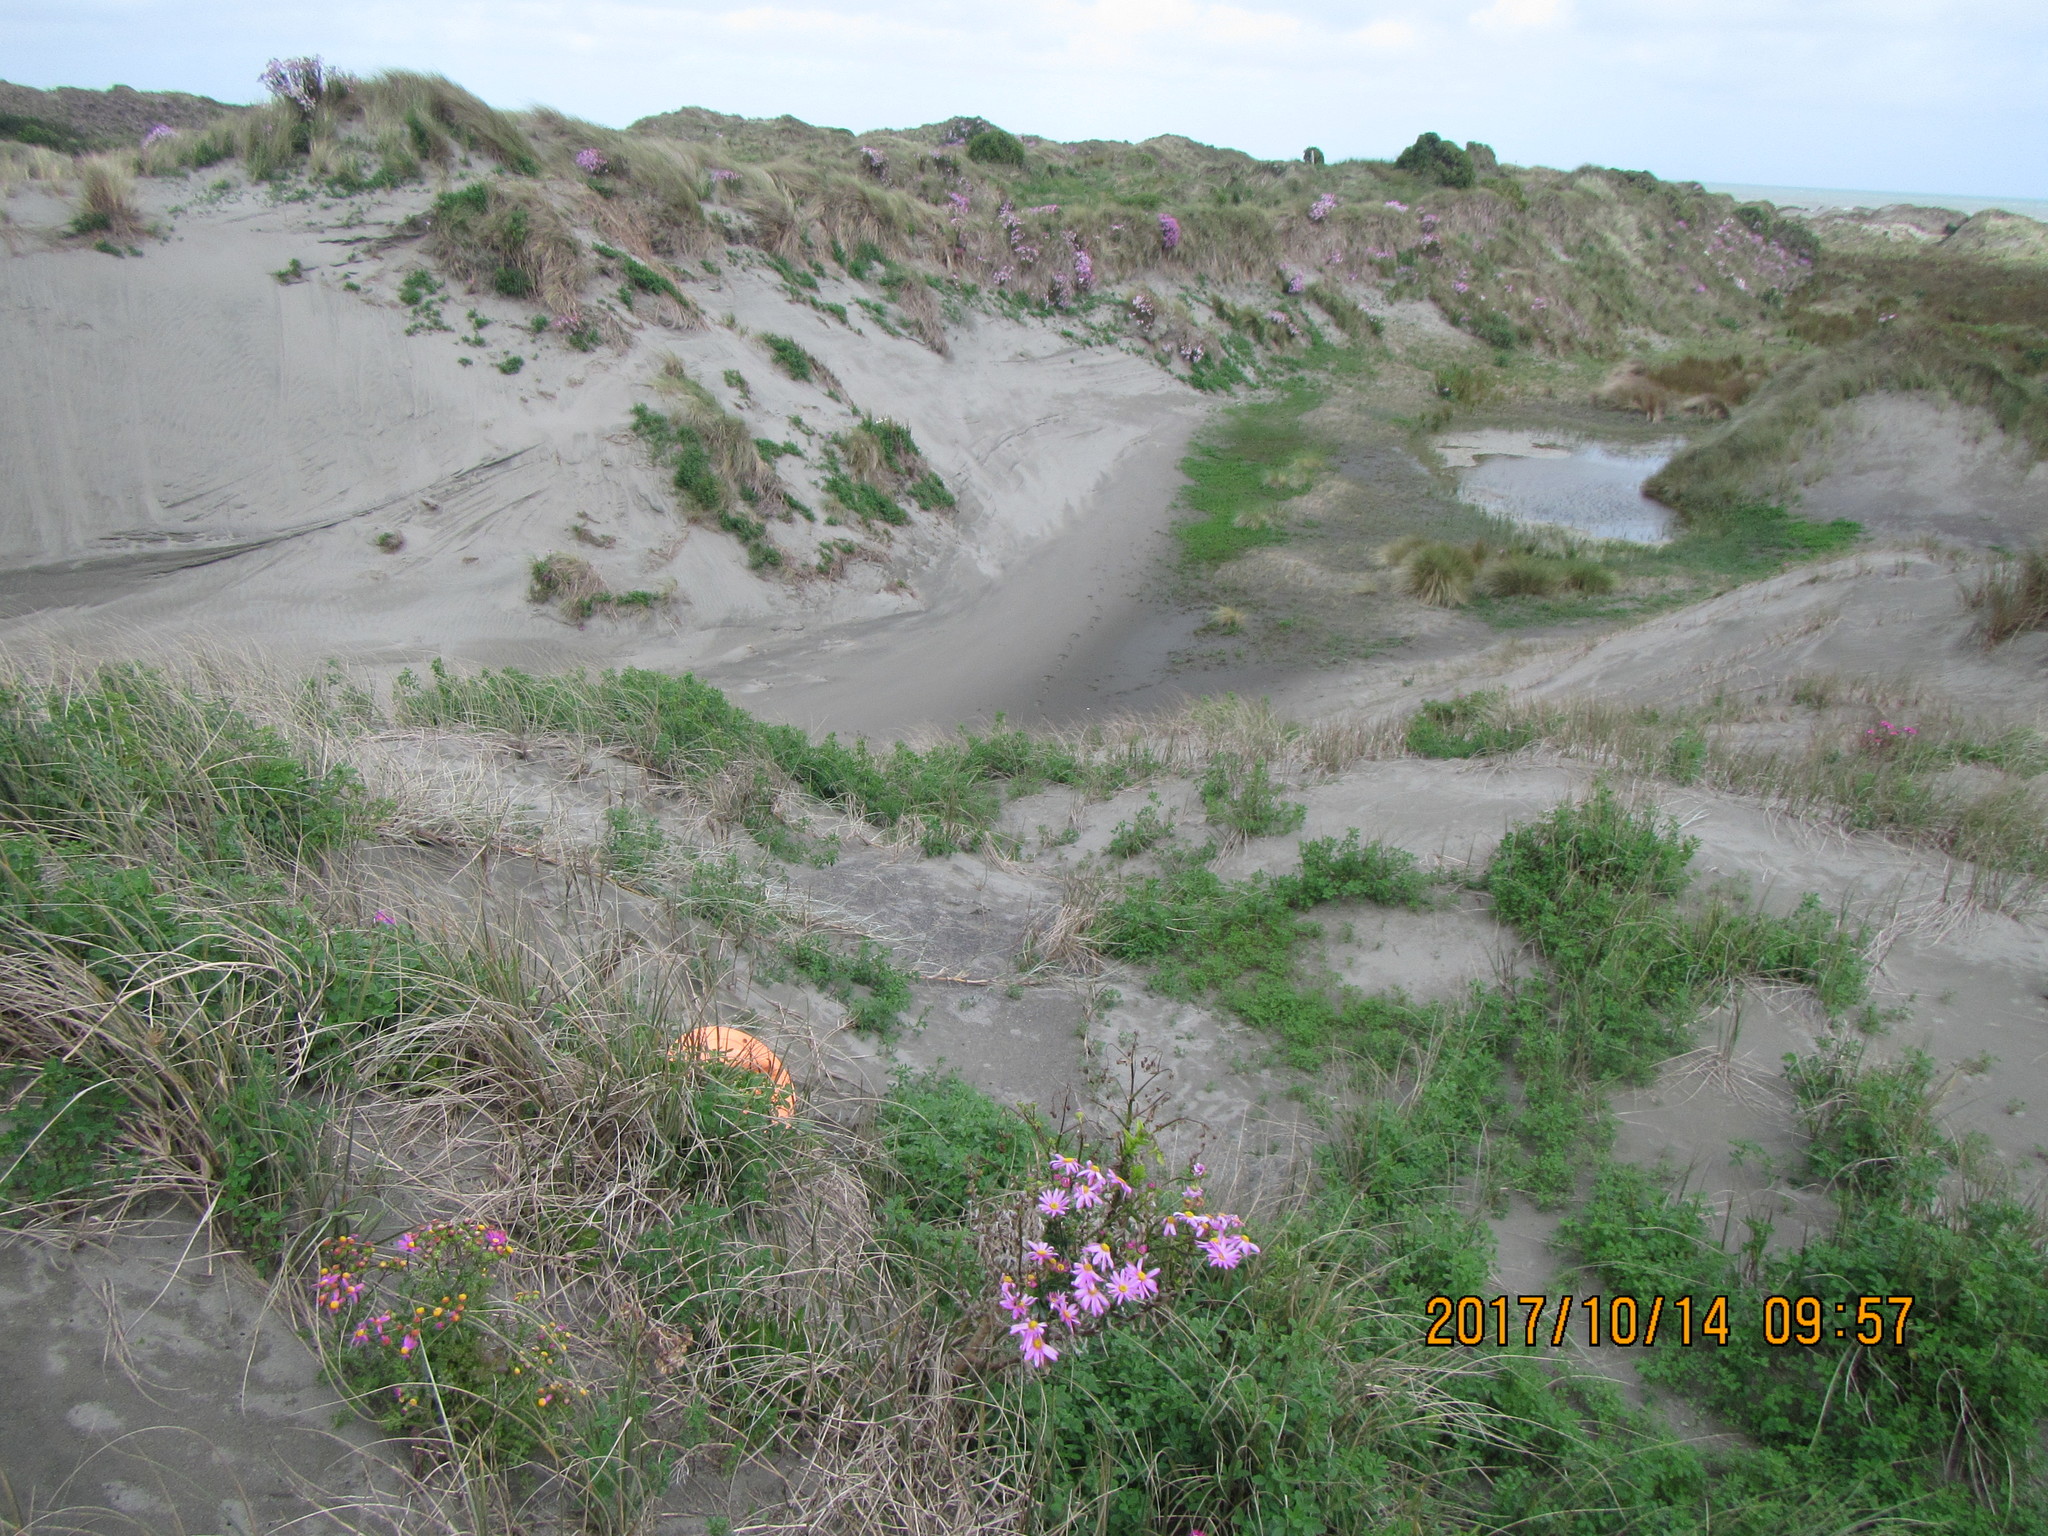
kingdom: Animalia
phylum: Mollusca
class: Gastropoda
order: Stylommatophora
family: Geomitridae
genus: Xeroplexa
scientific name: Xeroplexa intersecta
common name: Wrinkled snail
